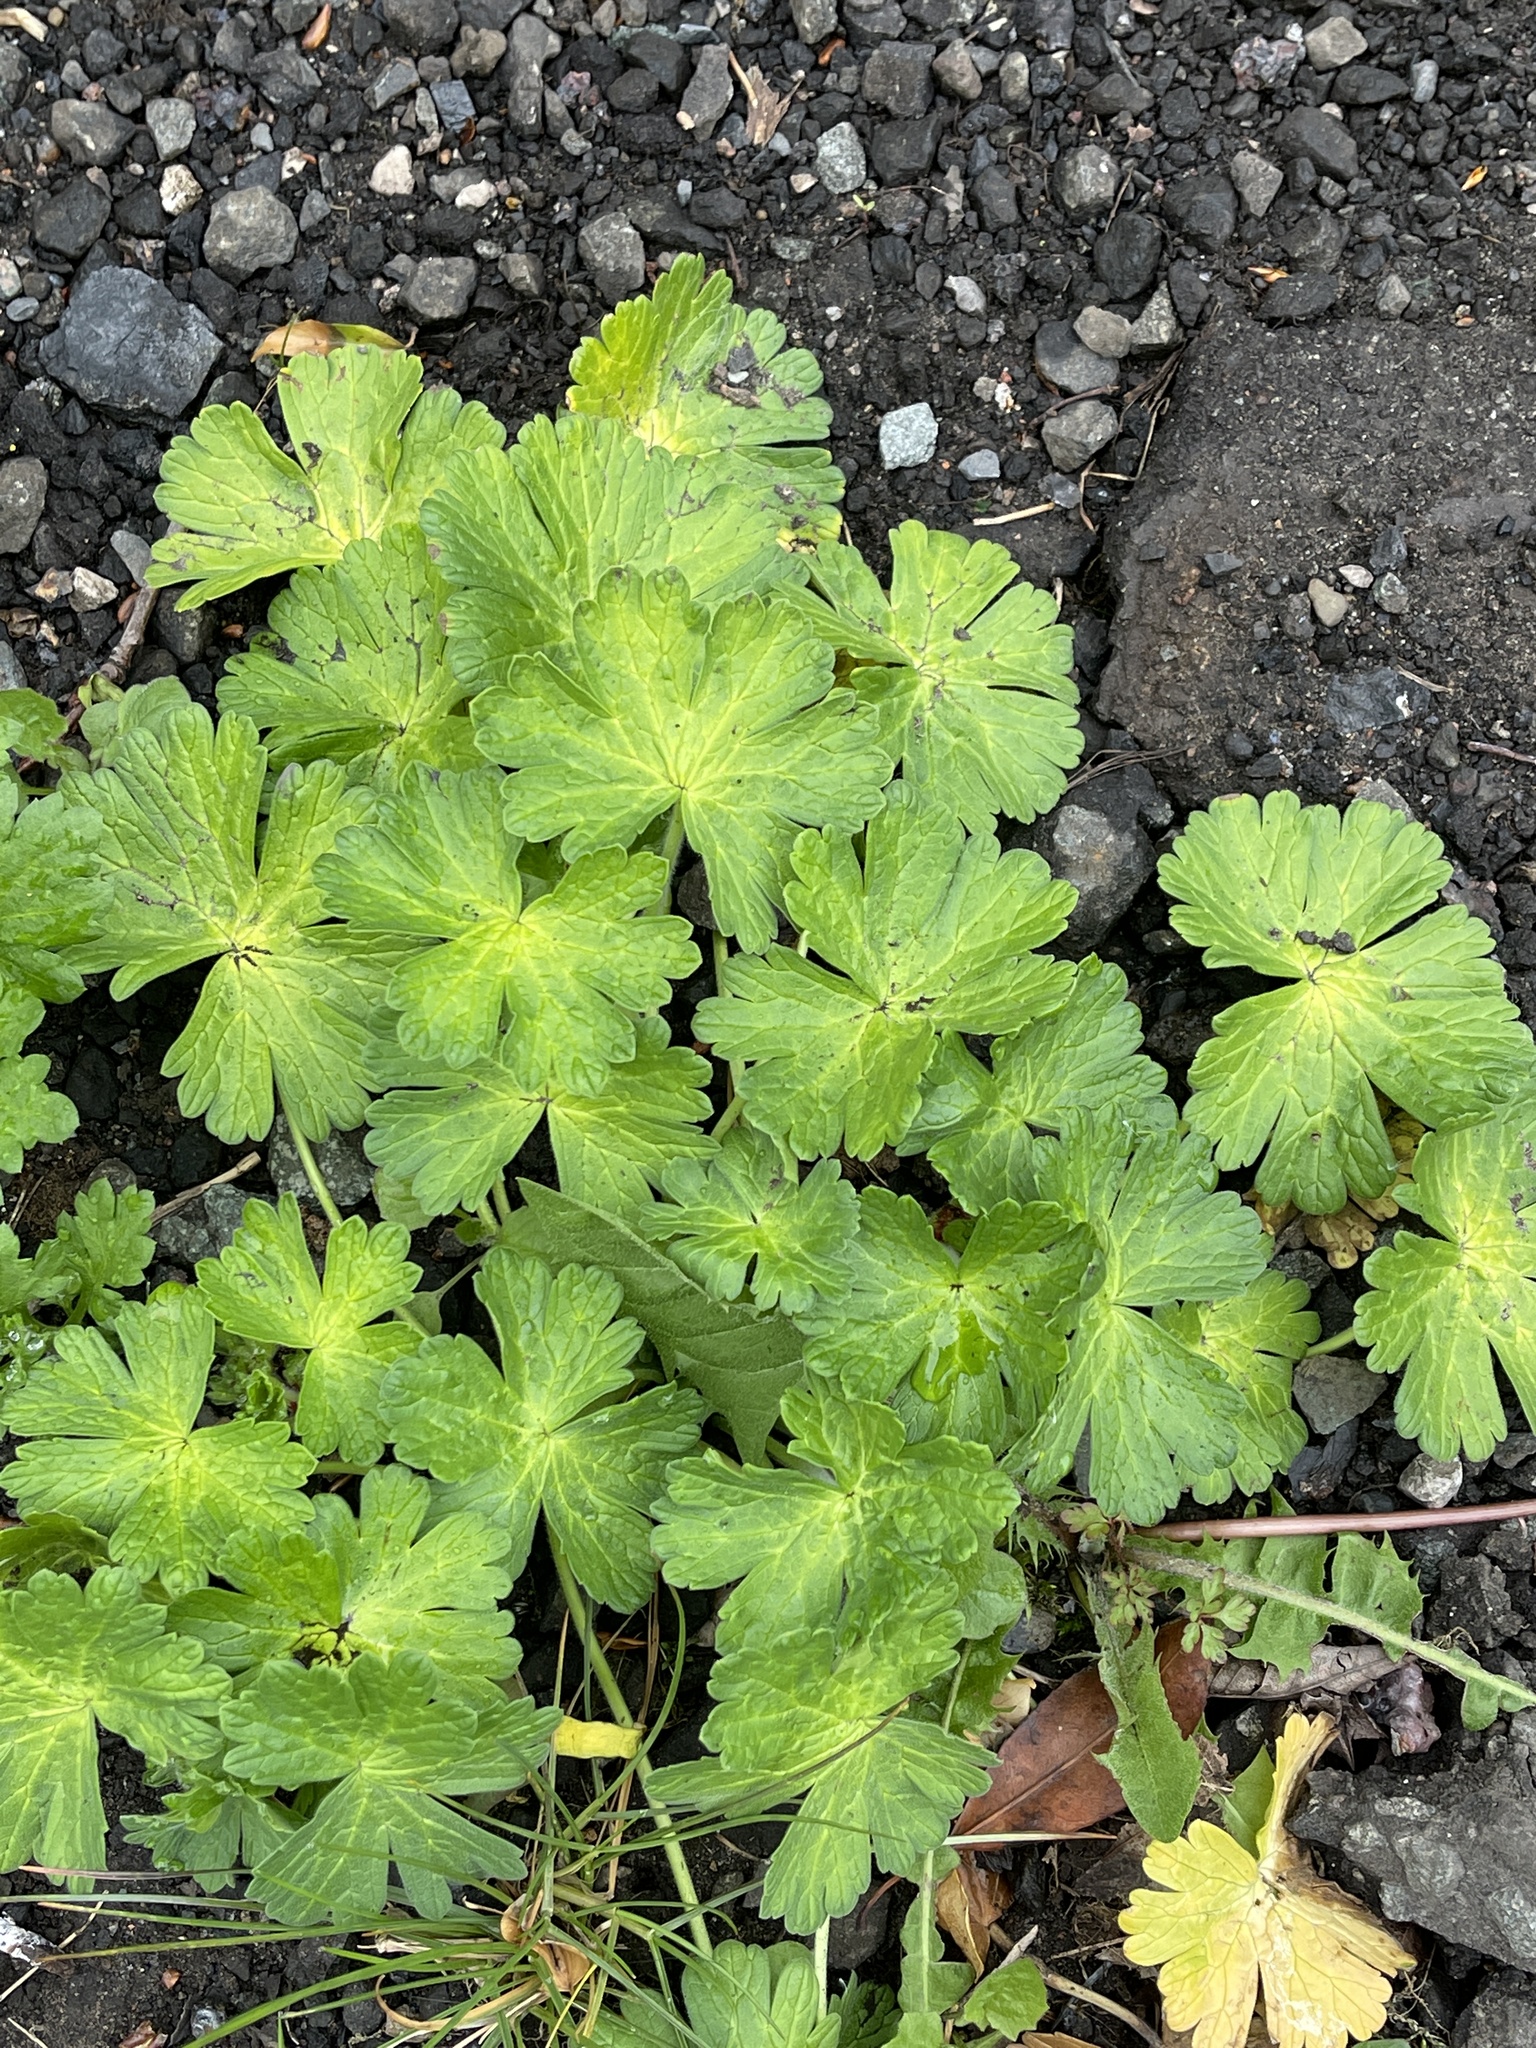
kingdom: Plantae
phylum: Tracheophyta
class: Magnoliopsida
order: Geraniales
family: Geraniaceae
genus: Geranium
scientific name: Geranium pyrenaicum
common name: Hedgerow crane's-bill
